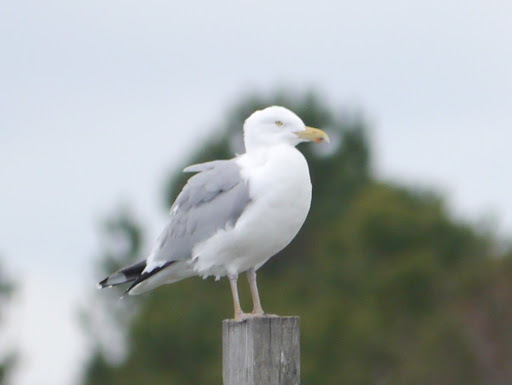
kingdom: Animalia
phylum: Chordata
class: Aves
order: Charadriiformes
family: Laridae
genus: Larus
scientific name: Larus argentatus
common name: Herring gull
